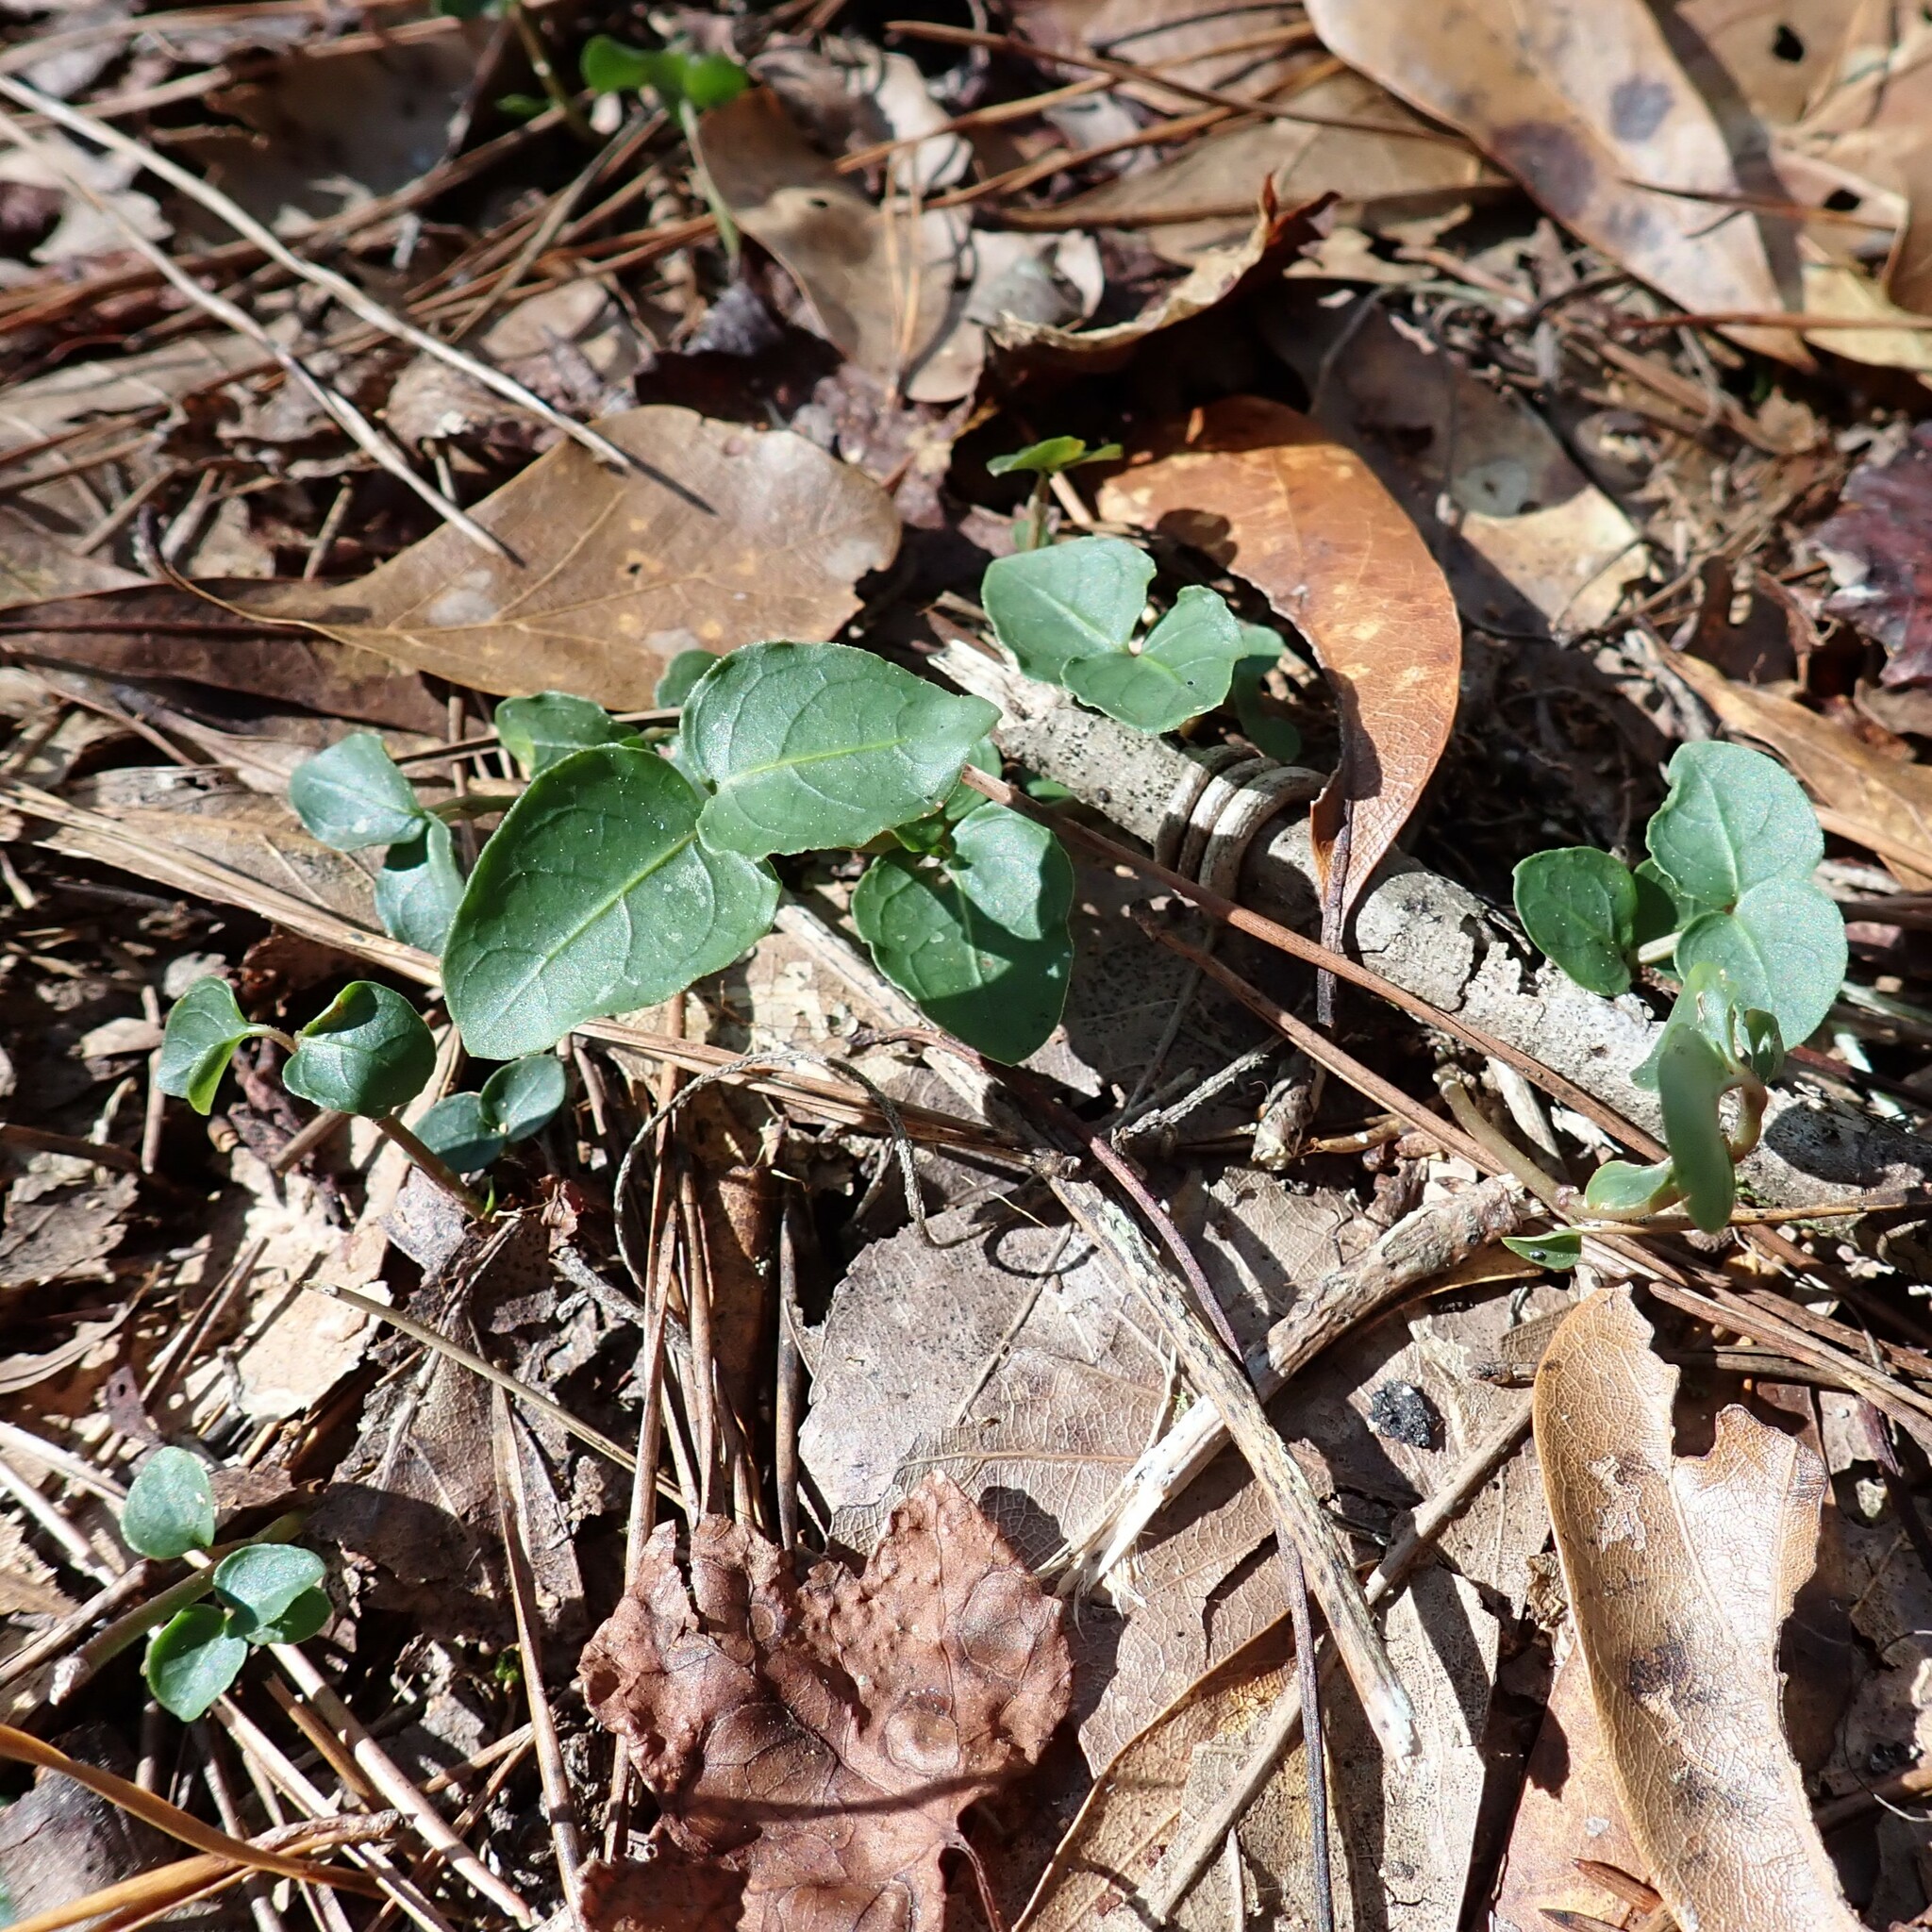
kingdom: Plantae
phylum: Tracheophyta
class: Magnoliopsida
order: Gentianales
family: Rubiaceae
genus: Mitchella
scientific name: Mitchella repens
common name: Partridge-berry
